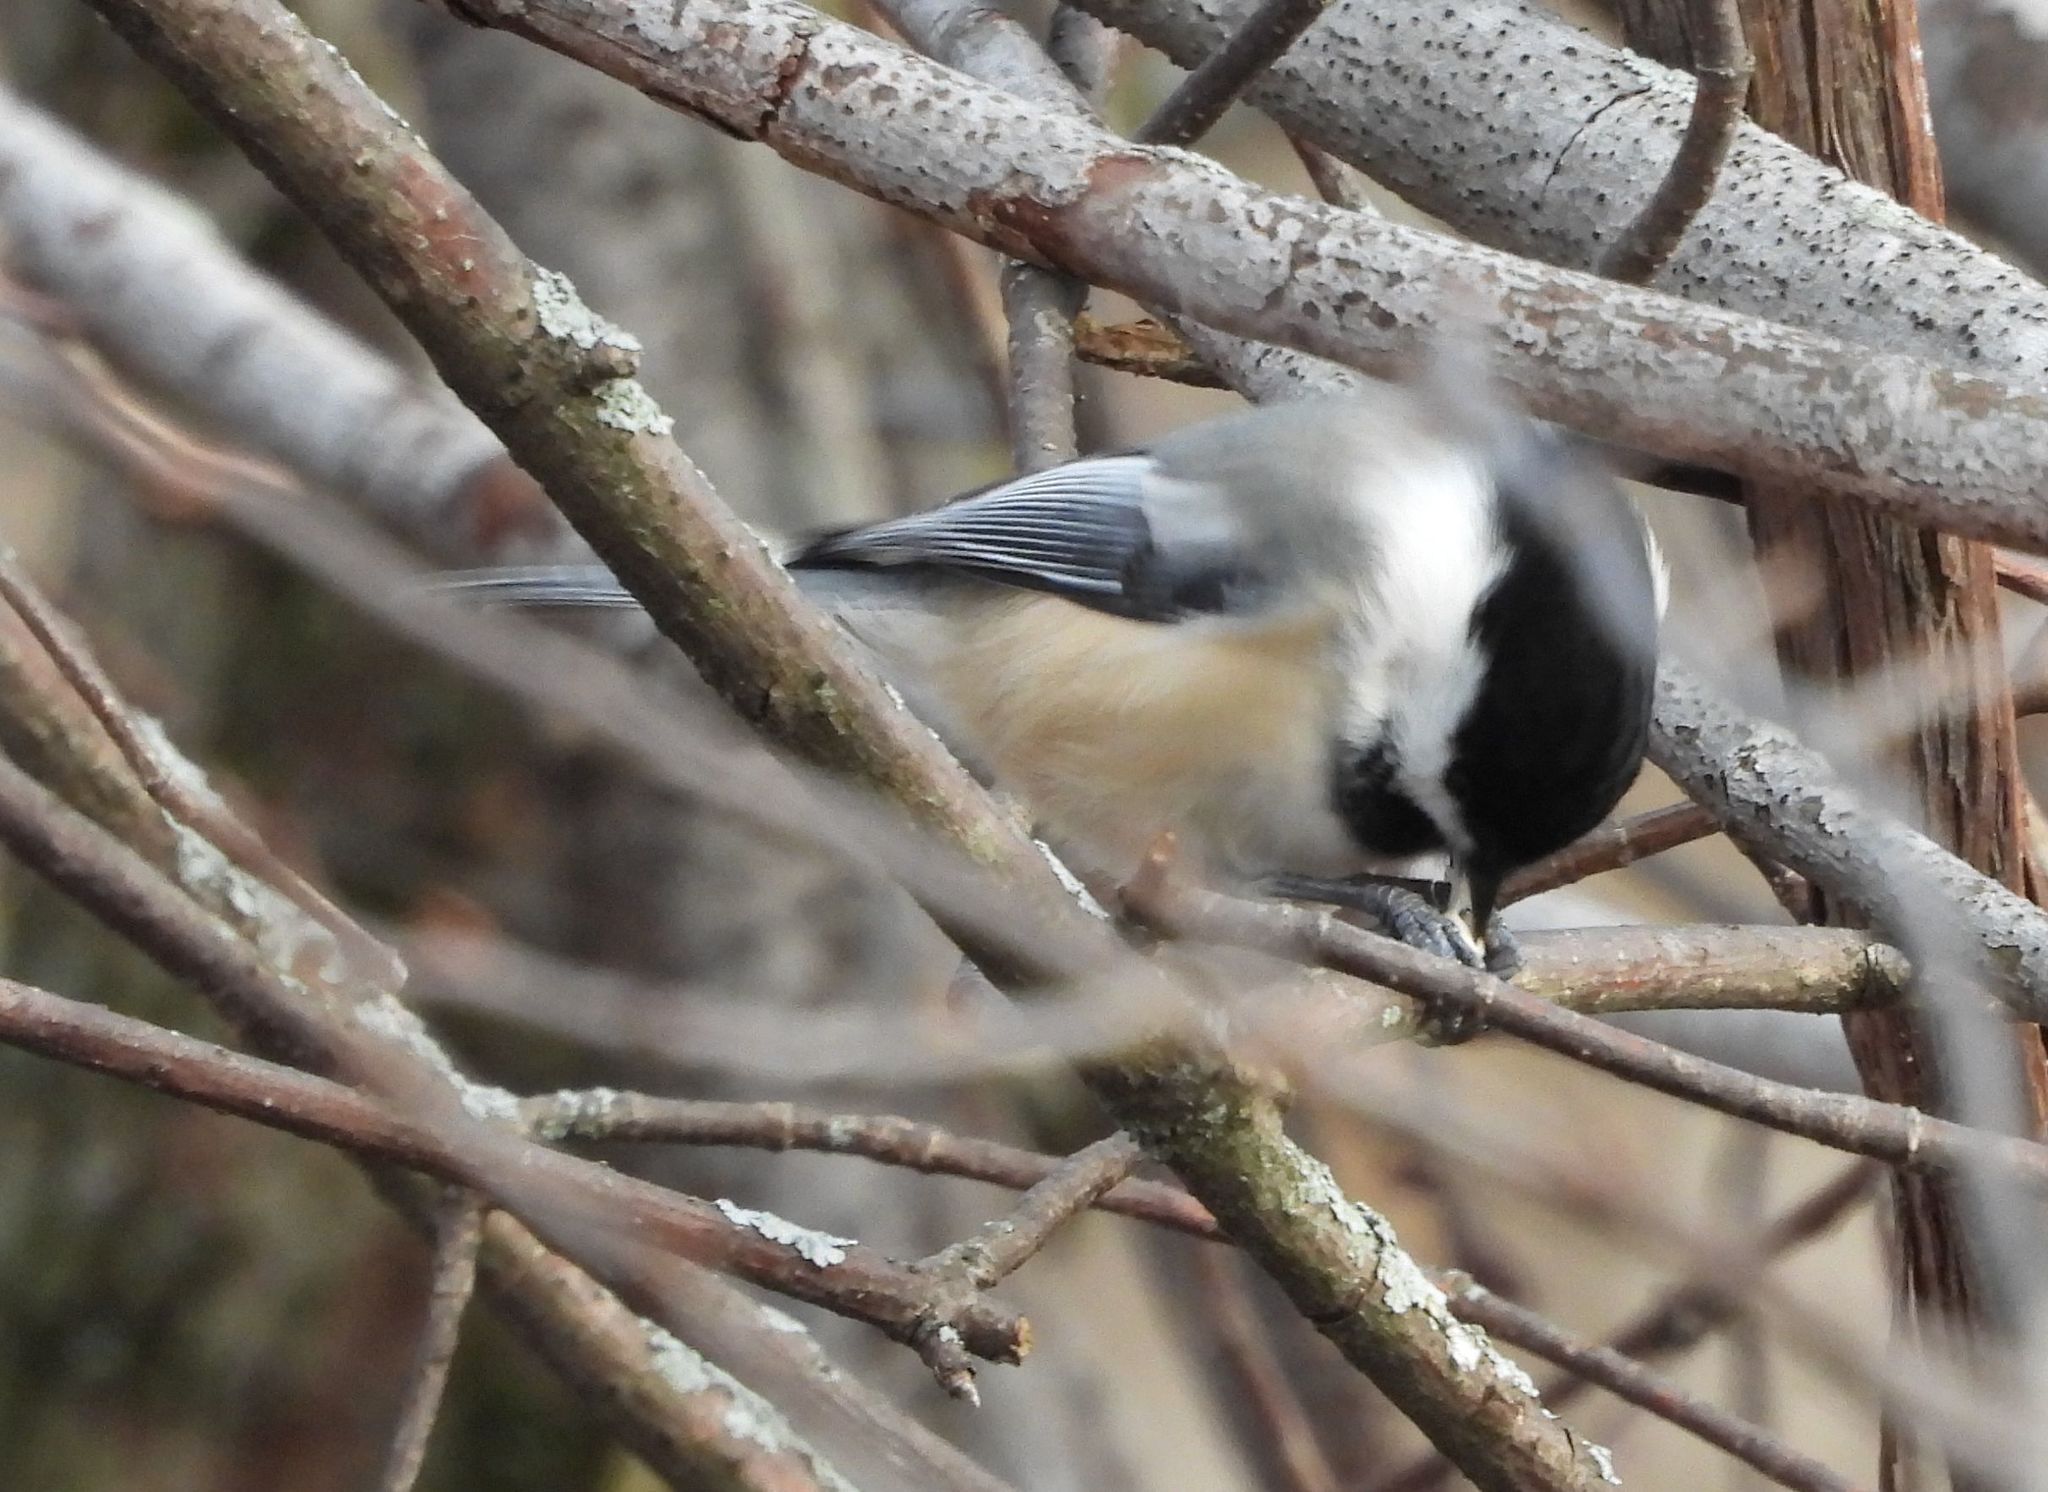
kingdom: Animalia
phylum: Chordata
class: Aves
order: Passeriformes
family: Paridae
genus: Poecile
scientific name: Poecile atricapillus
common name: Black-capped chickadee
